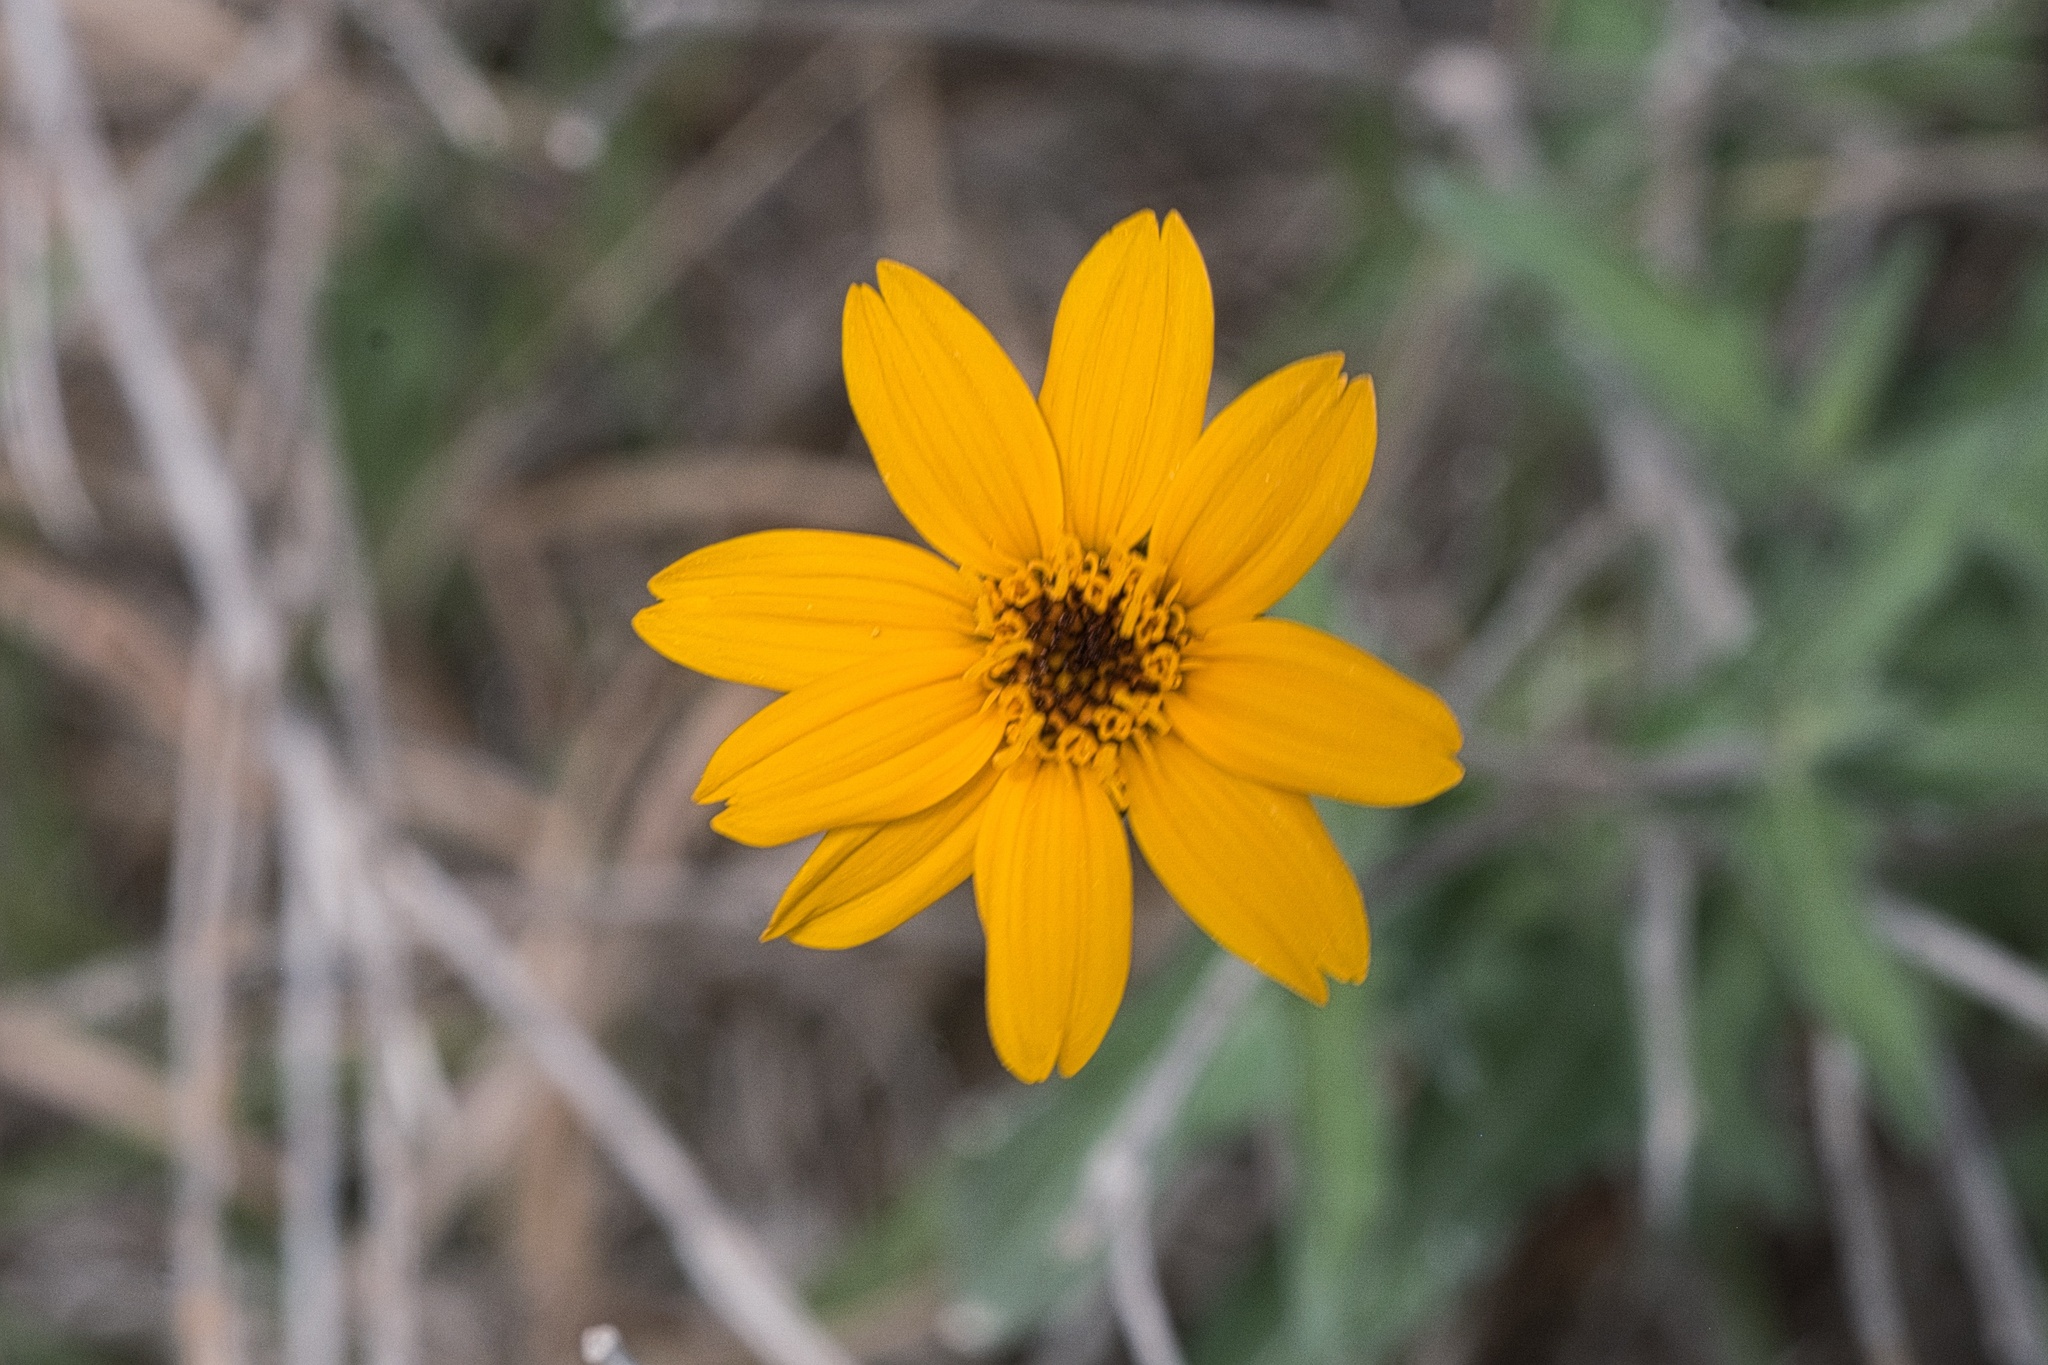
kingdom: Plantae
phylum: Tracheophyta
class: Magnoliopsida
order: Asterales
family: Asteraceae
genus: Wedelia
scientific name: Wedelia acapulcensis
